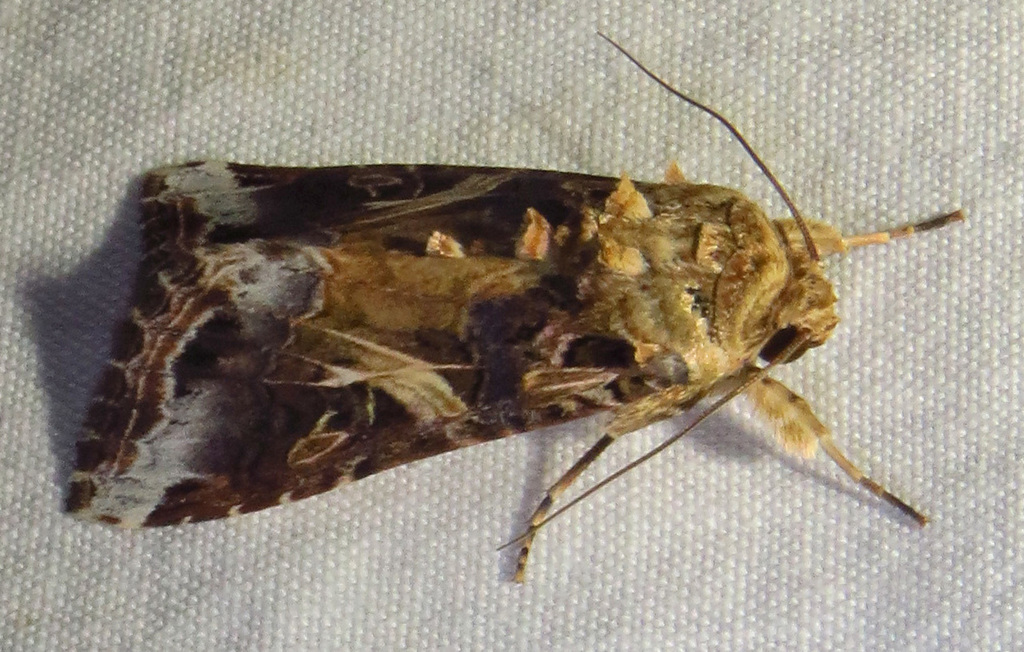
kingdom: Animalia
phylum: Arthropoda
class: Insecta
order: Lepidoptera
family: Noctuidae
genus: Spodoptera
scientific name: Spodoptera ornithogalli
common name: Yellow-striped armyworm
